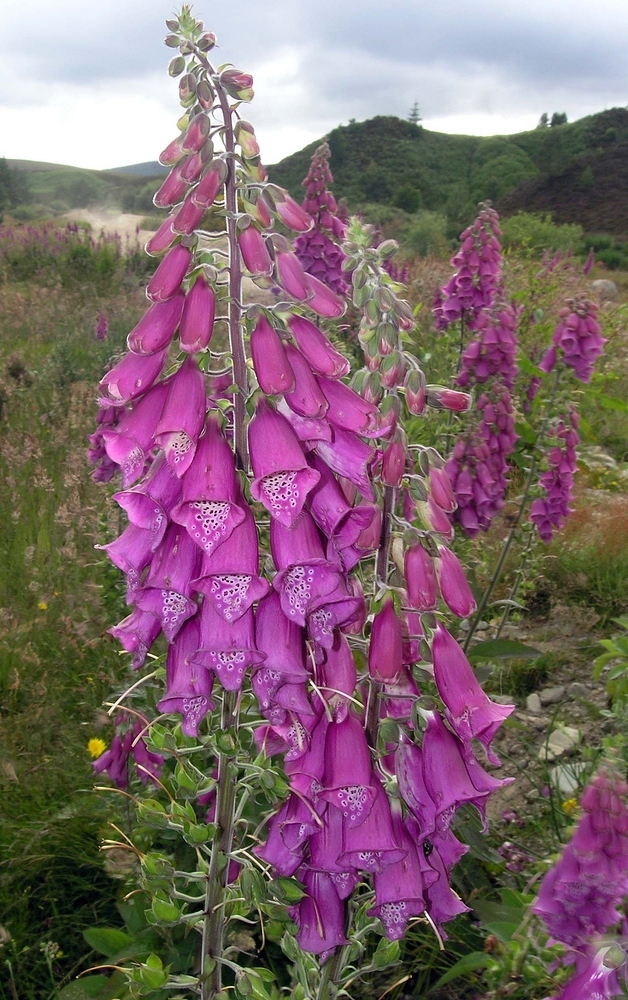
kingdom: Plantae
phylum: Tracheophyta
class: Magnoliopsida
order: Lamiales
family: Plantaginaceae
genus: Digitalis
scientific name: Digitalis purpurea
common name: Foxglove
